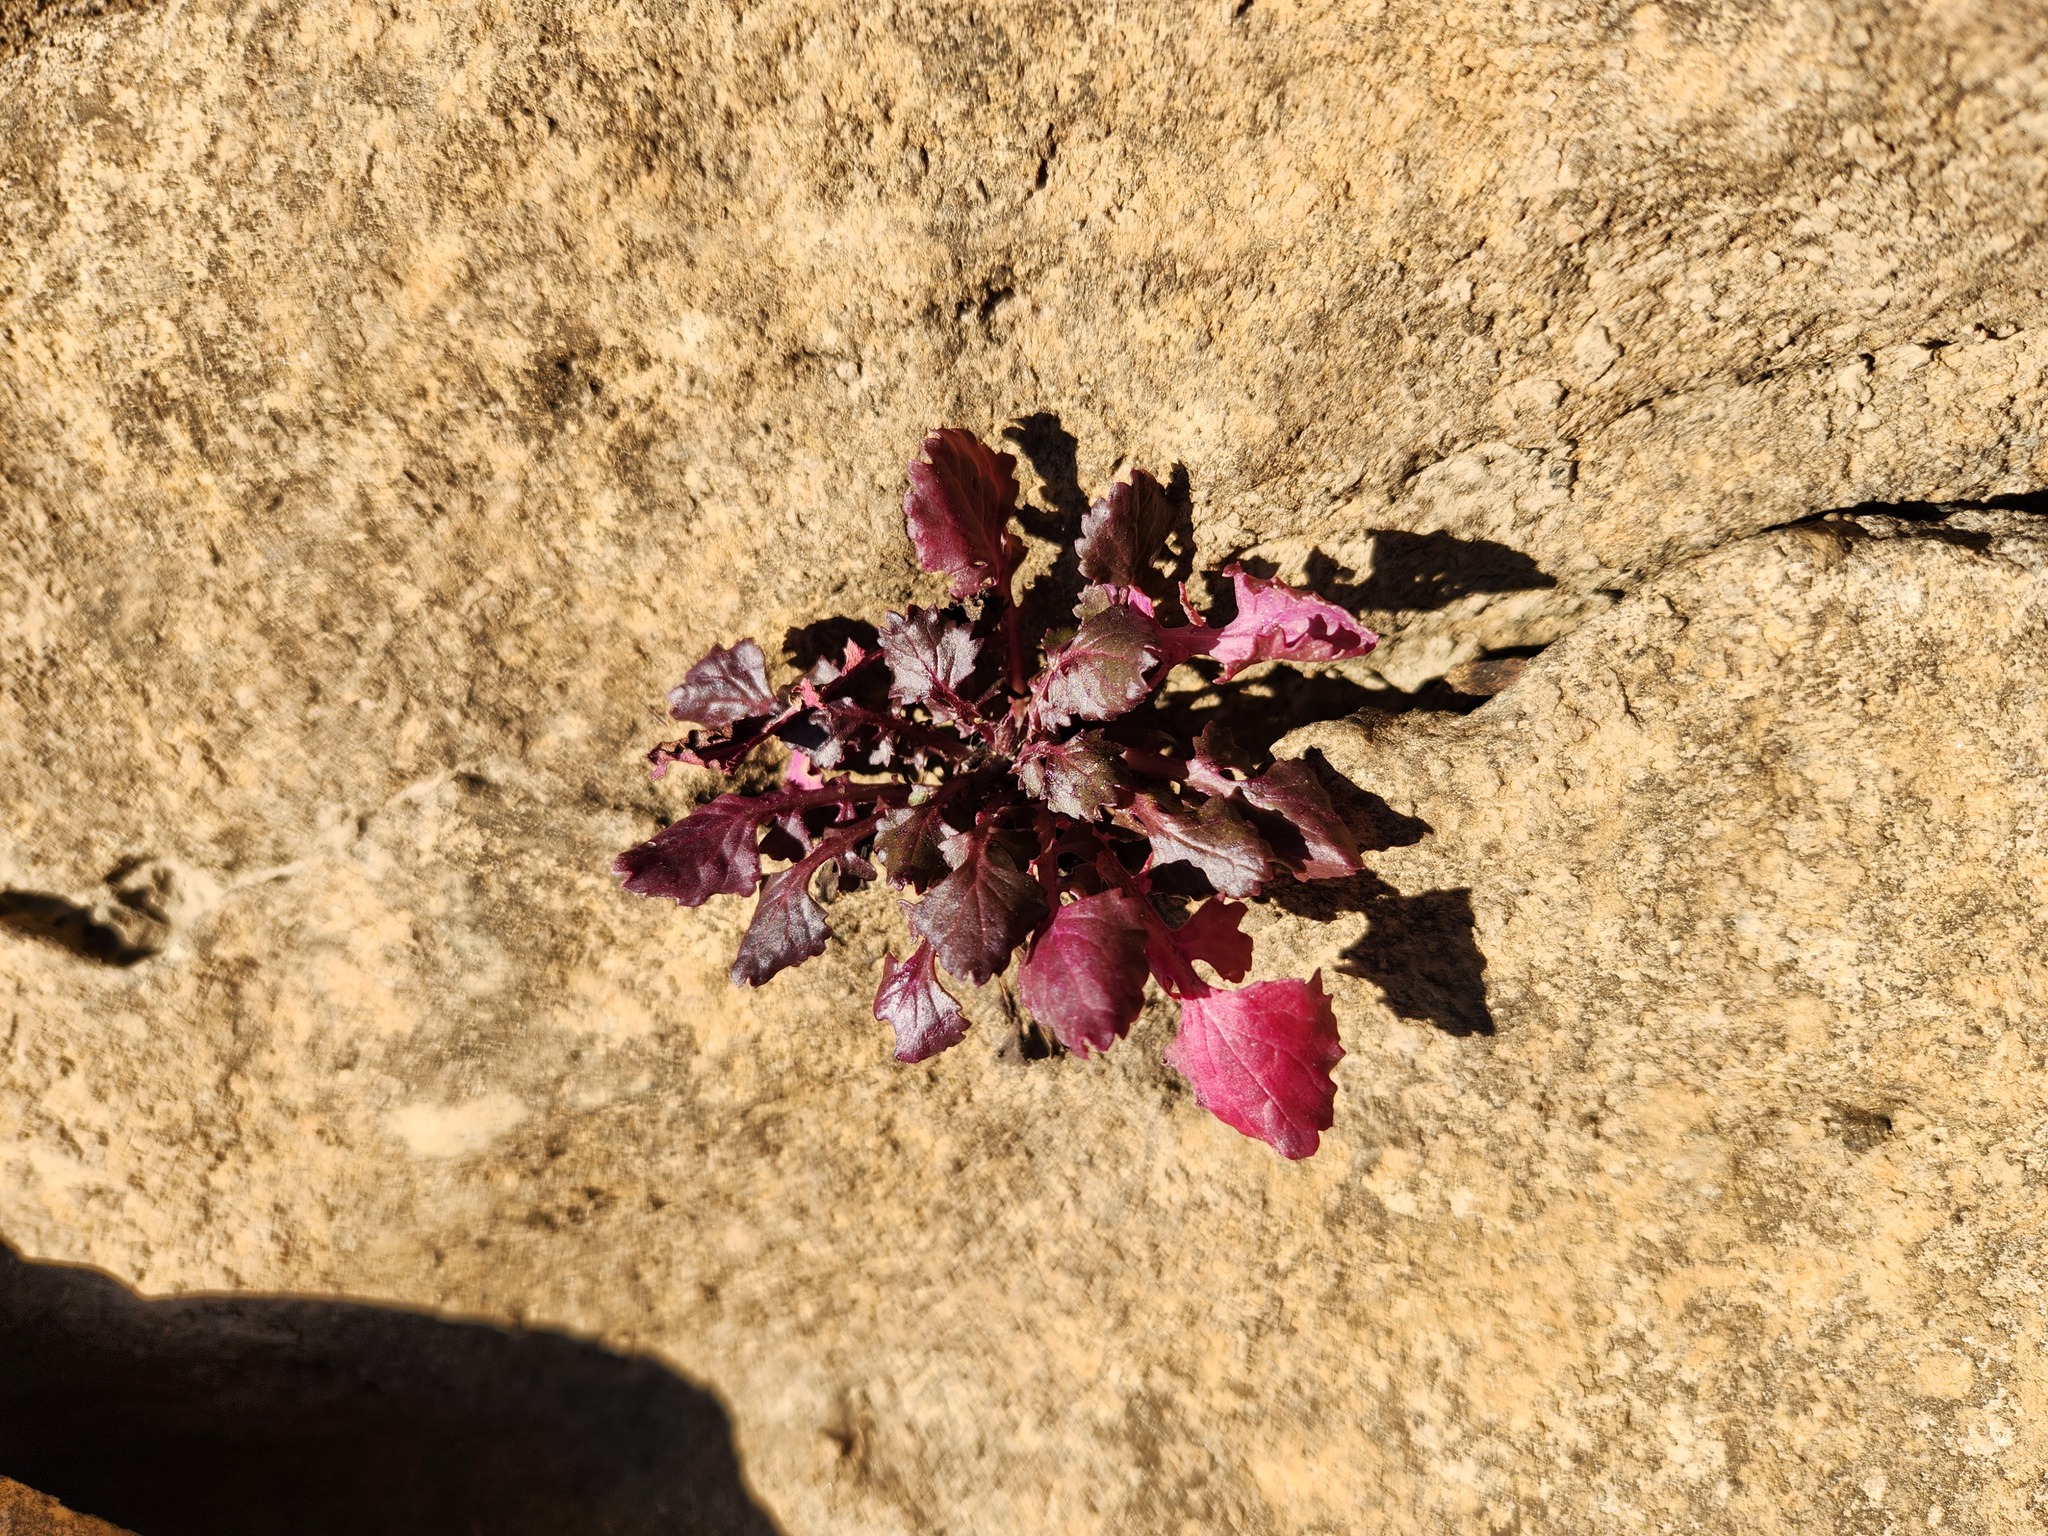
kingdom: Plantae
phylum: Tracheophyta
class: Magnoliopsida
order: Asterales
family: Asteraceae
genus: Packera
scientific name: Packera glabella
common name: Butterweed
